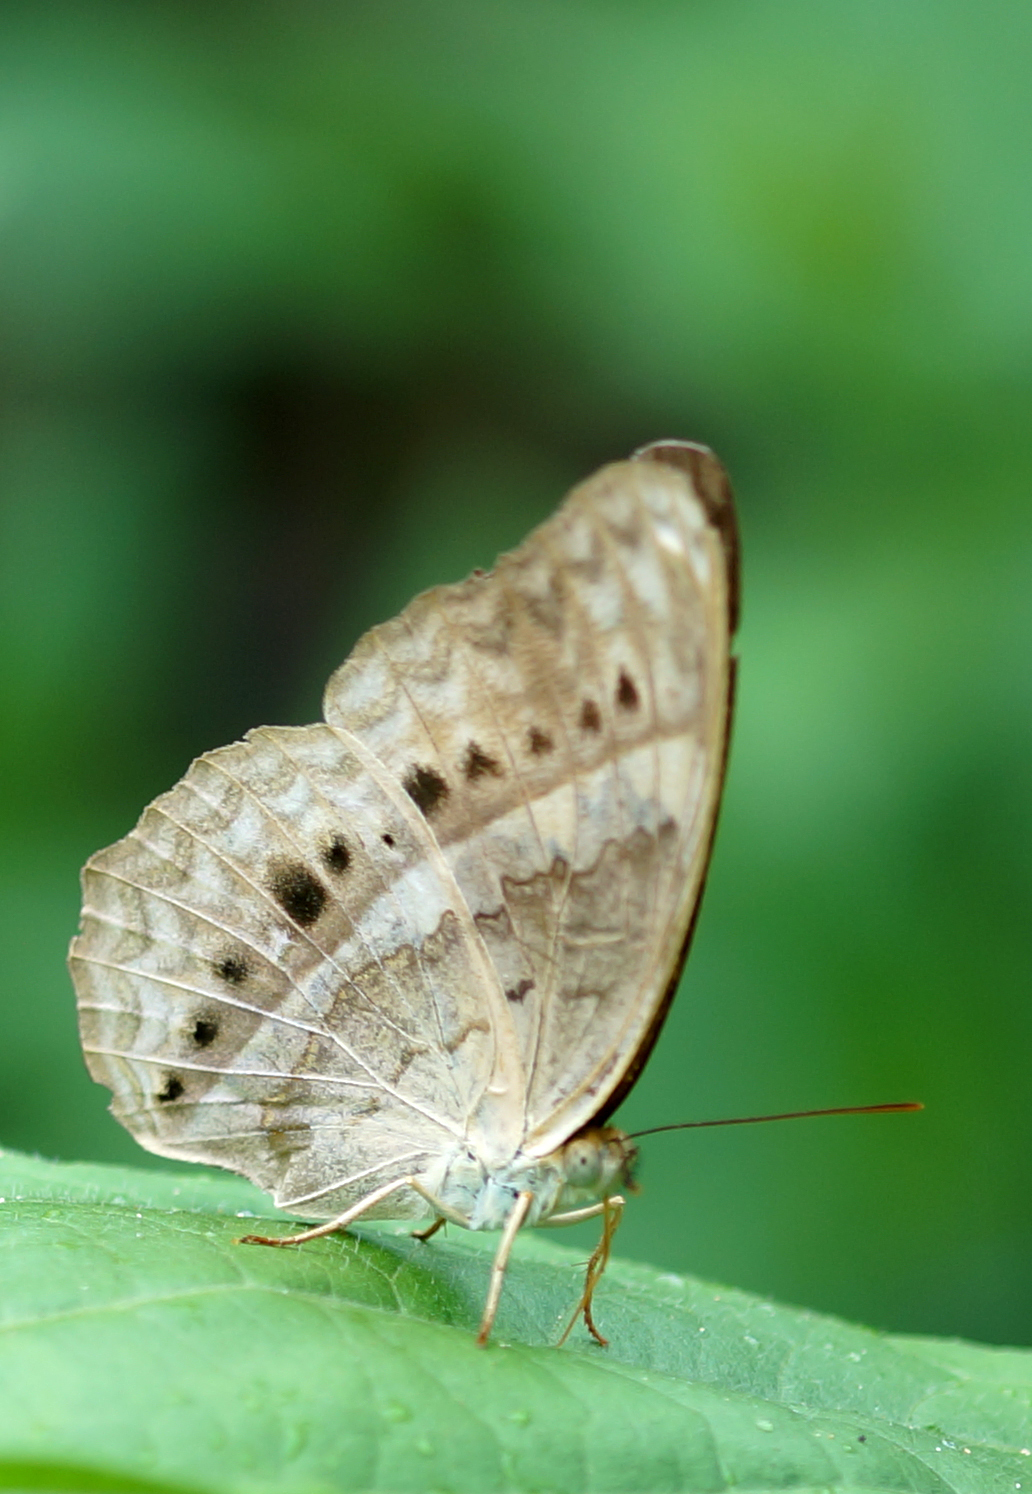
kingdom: Animalia
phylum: Arthropoda
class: Insecta
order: Lepidoptera
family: Nymphalidae
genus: Cirrochroa
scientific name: Cirrochroa tyche
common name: Common yeoman
